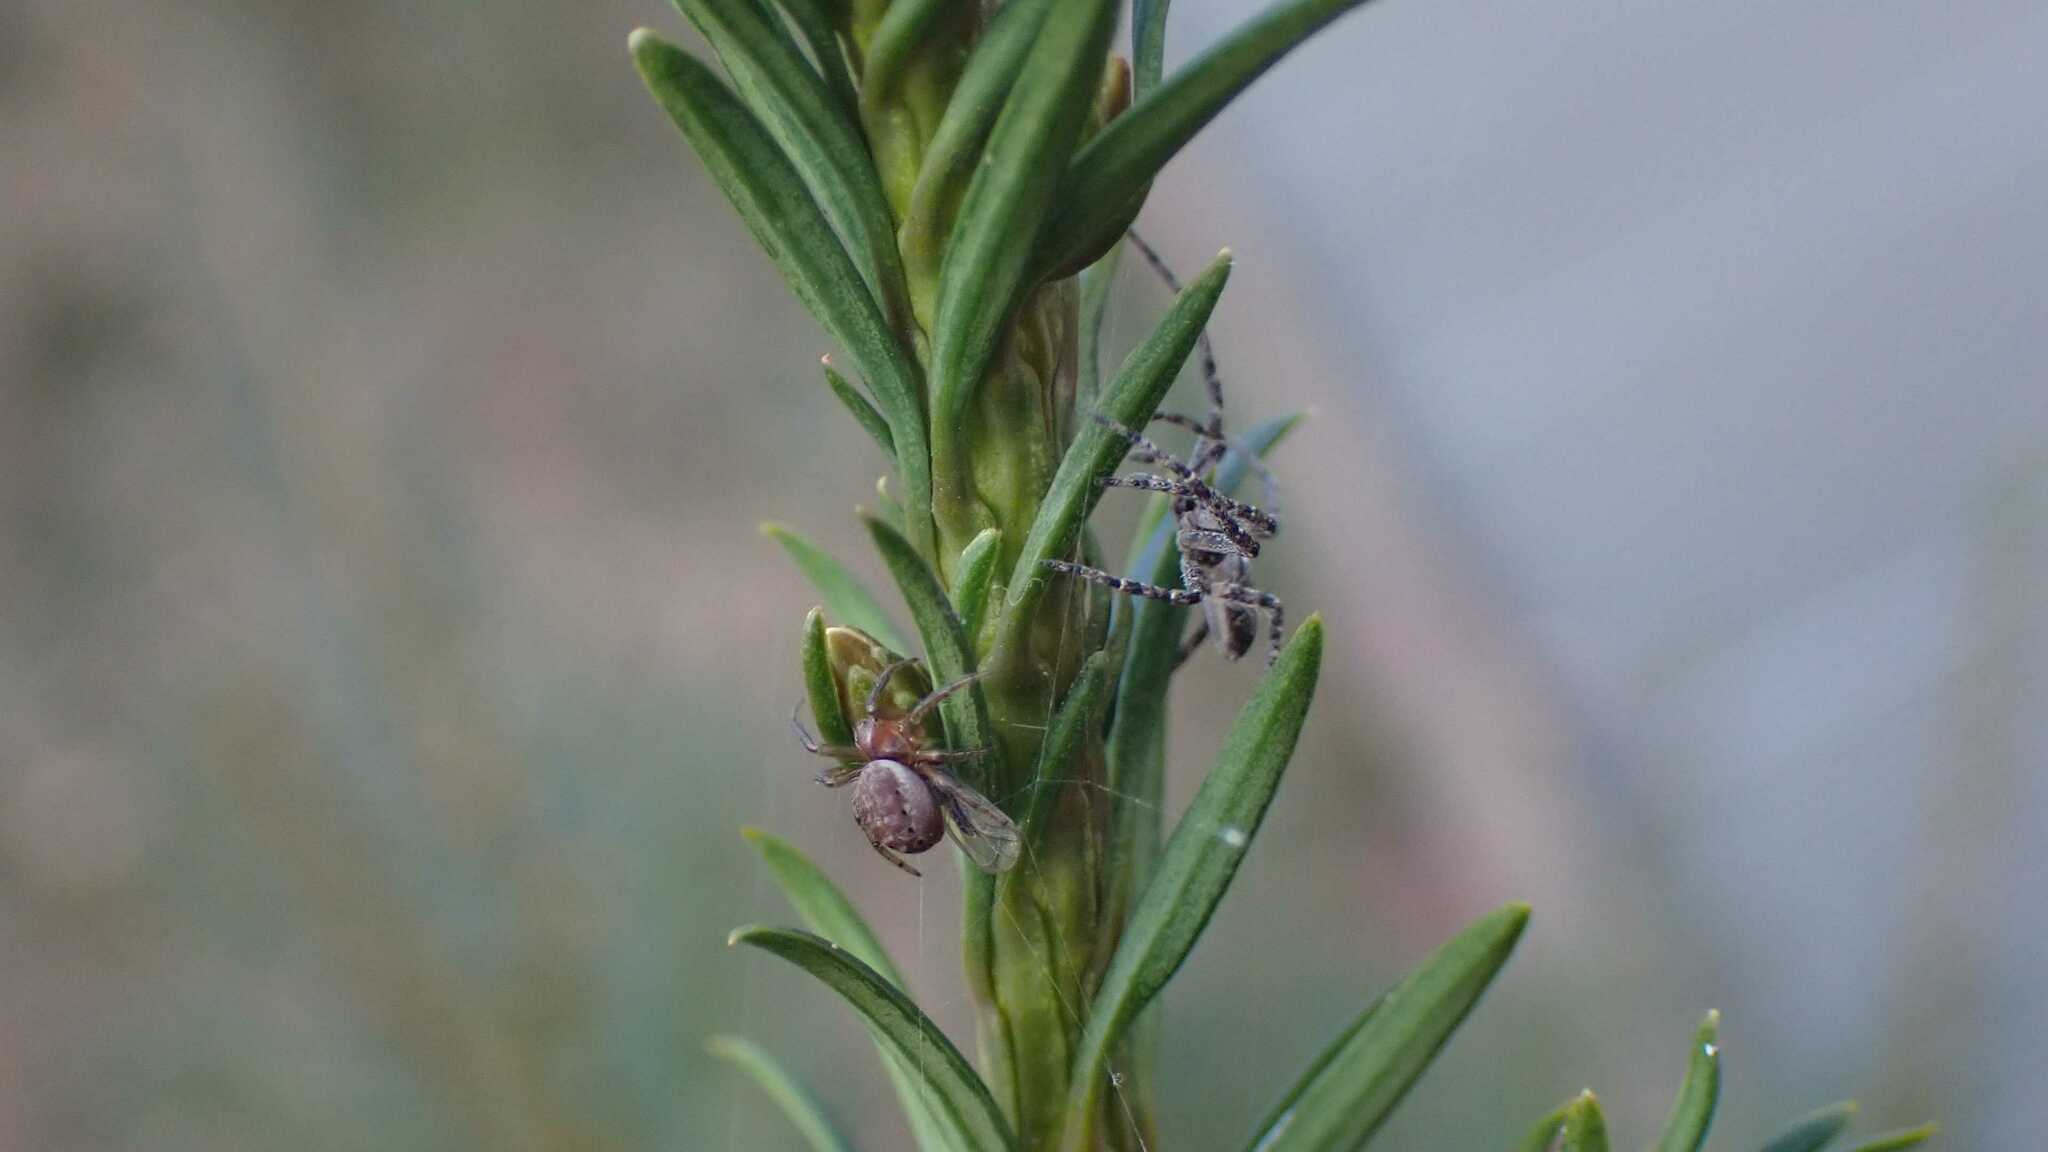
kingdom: Animalia
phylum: Arthropoda
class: Arachnida
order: Araneae
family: Araneidae
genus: Araniella
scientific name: Araniella
